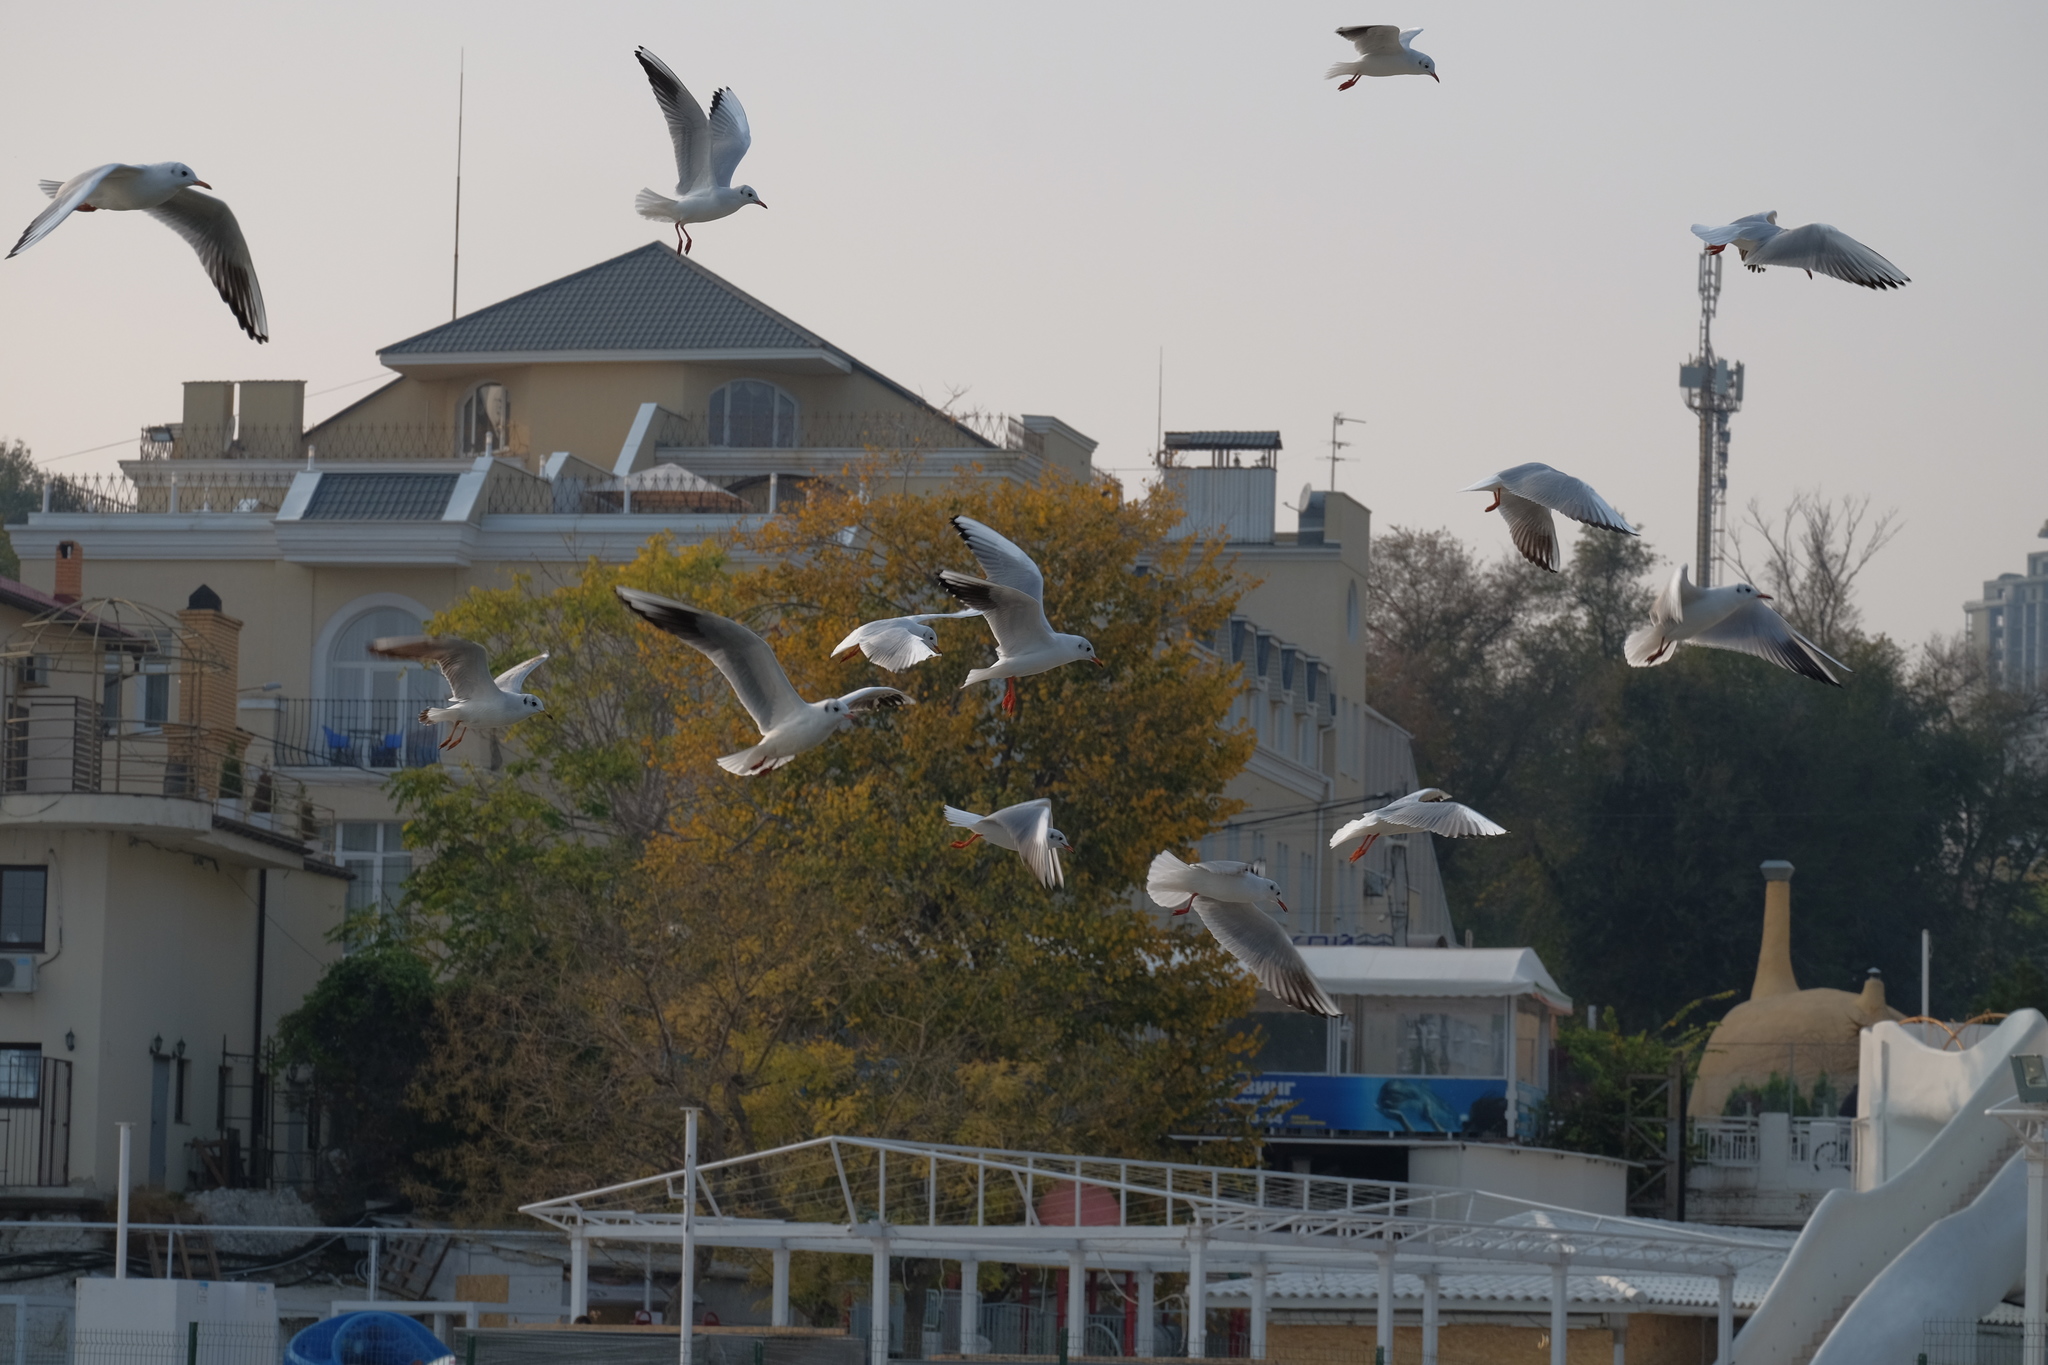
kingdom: Animalia
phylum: Chordata
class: Aves
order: Charadriiformes
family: Laridae
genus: Chroicocephalus
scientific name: Chroicocephalus ridibundus
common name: Black-headed gull
